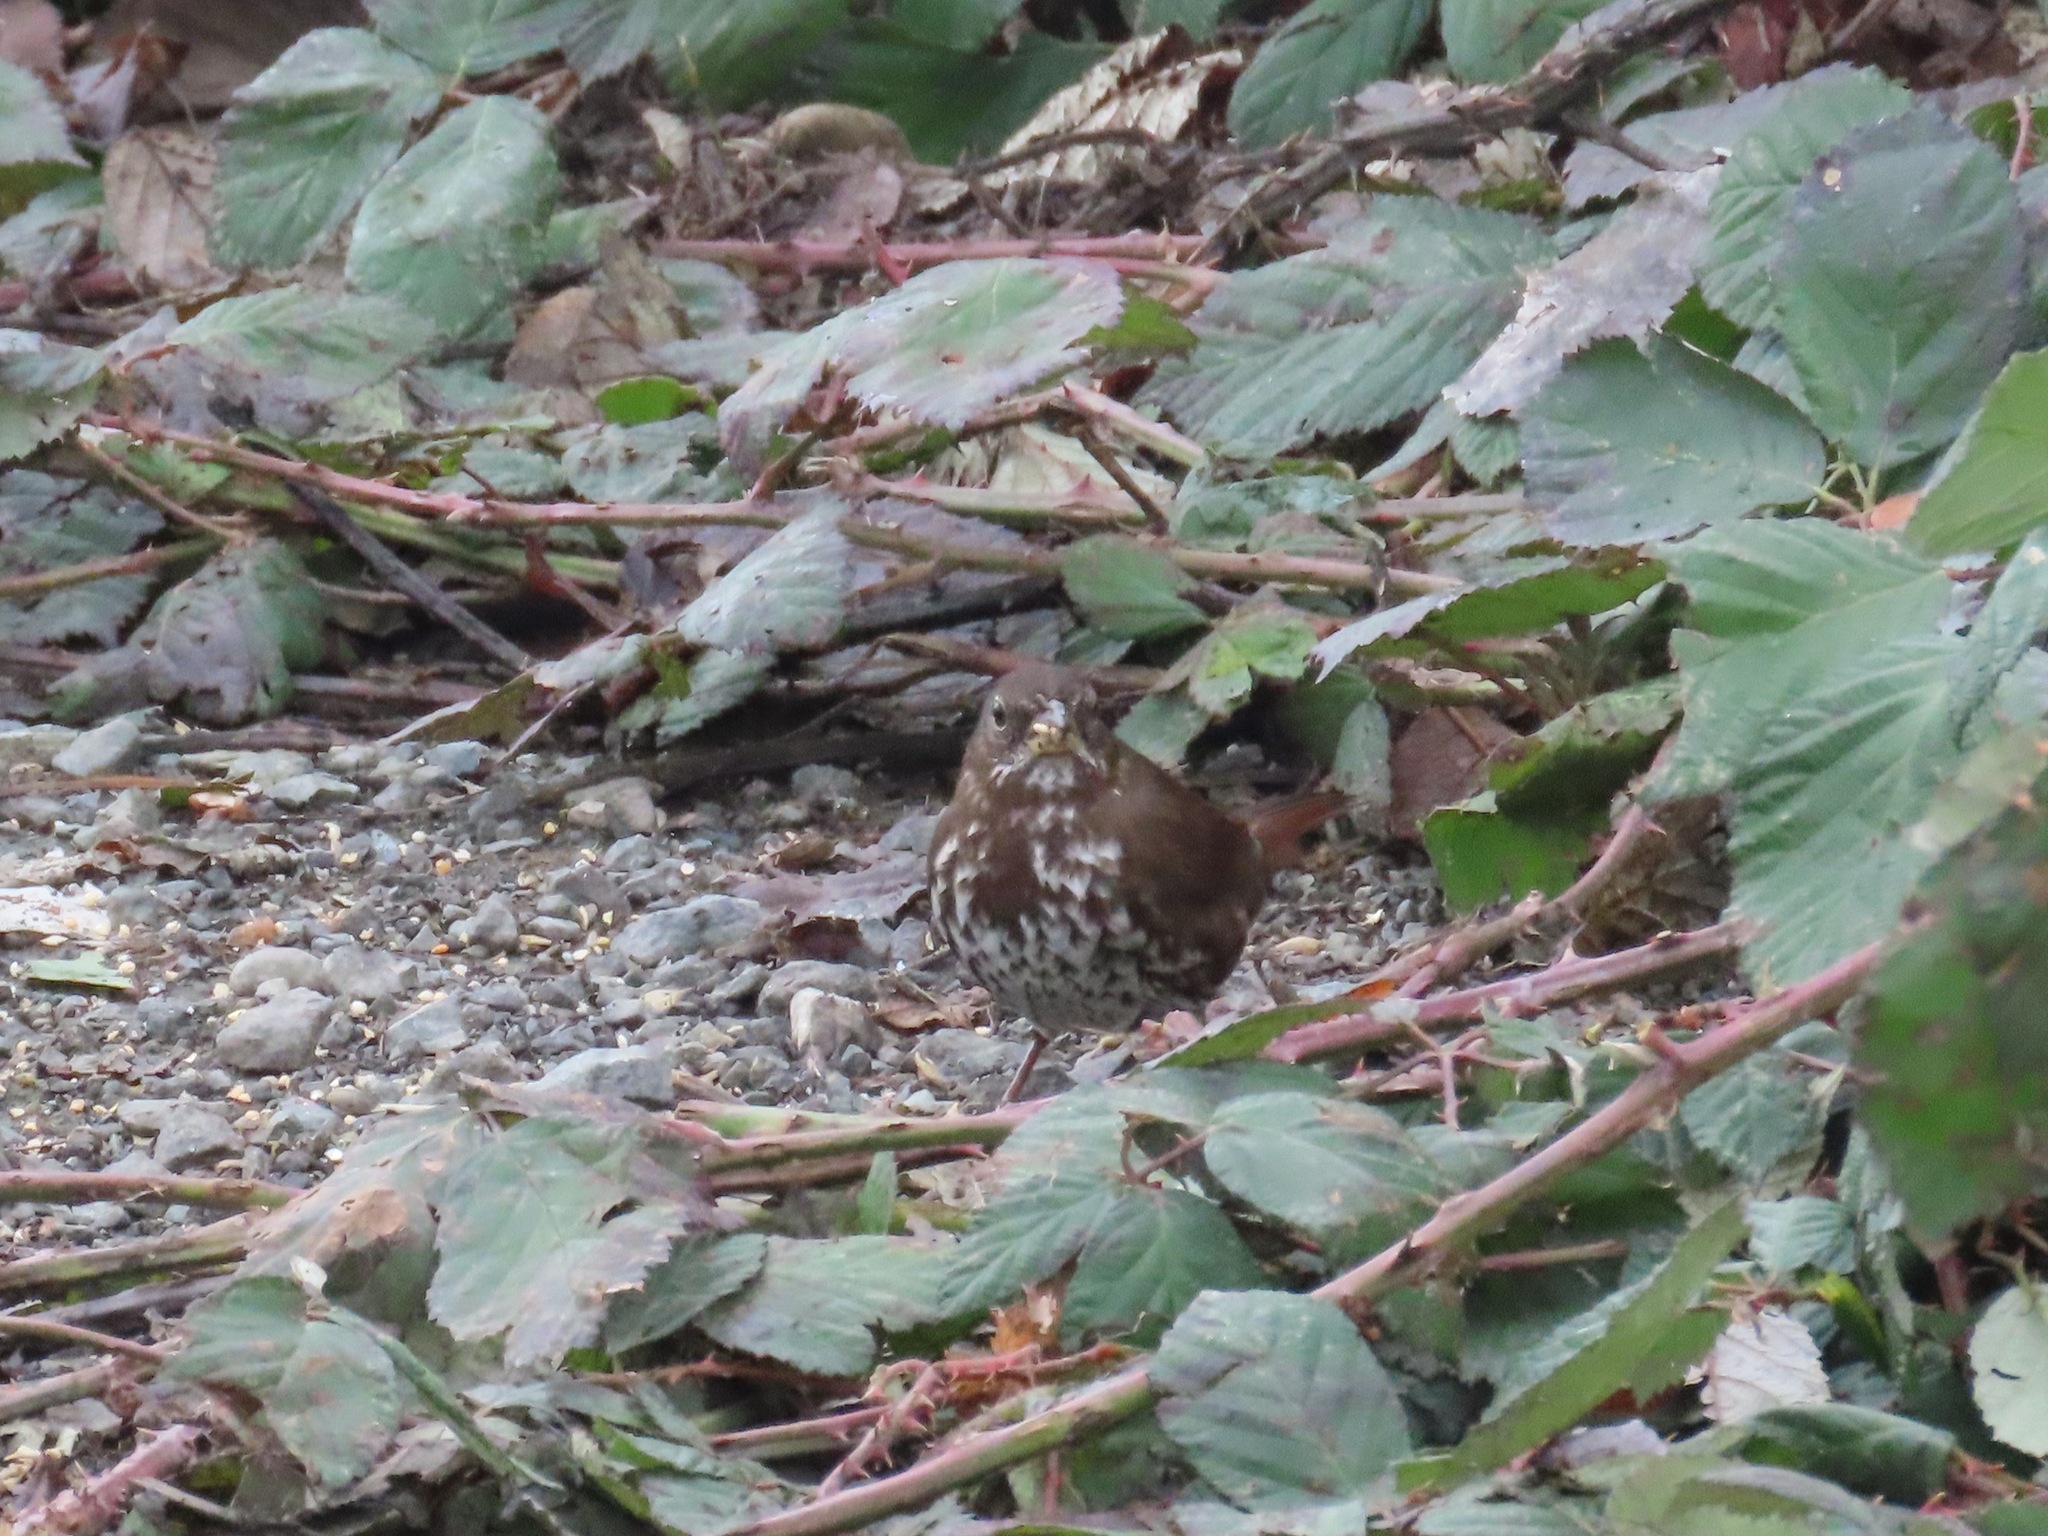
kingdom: Animalia
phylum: Chordata
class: Aves
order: Passeriformes
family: Passerellidae
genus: Passerella
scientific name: Passerella iliaca
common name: Fox sparrow
